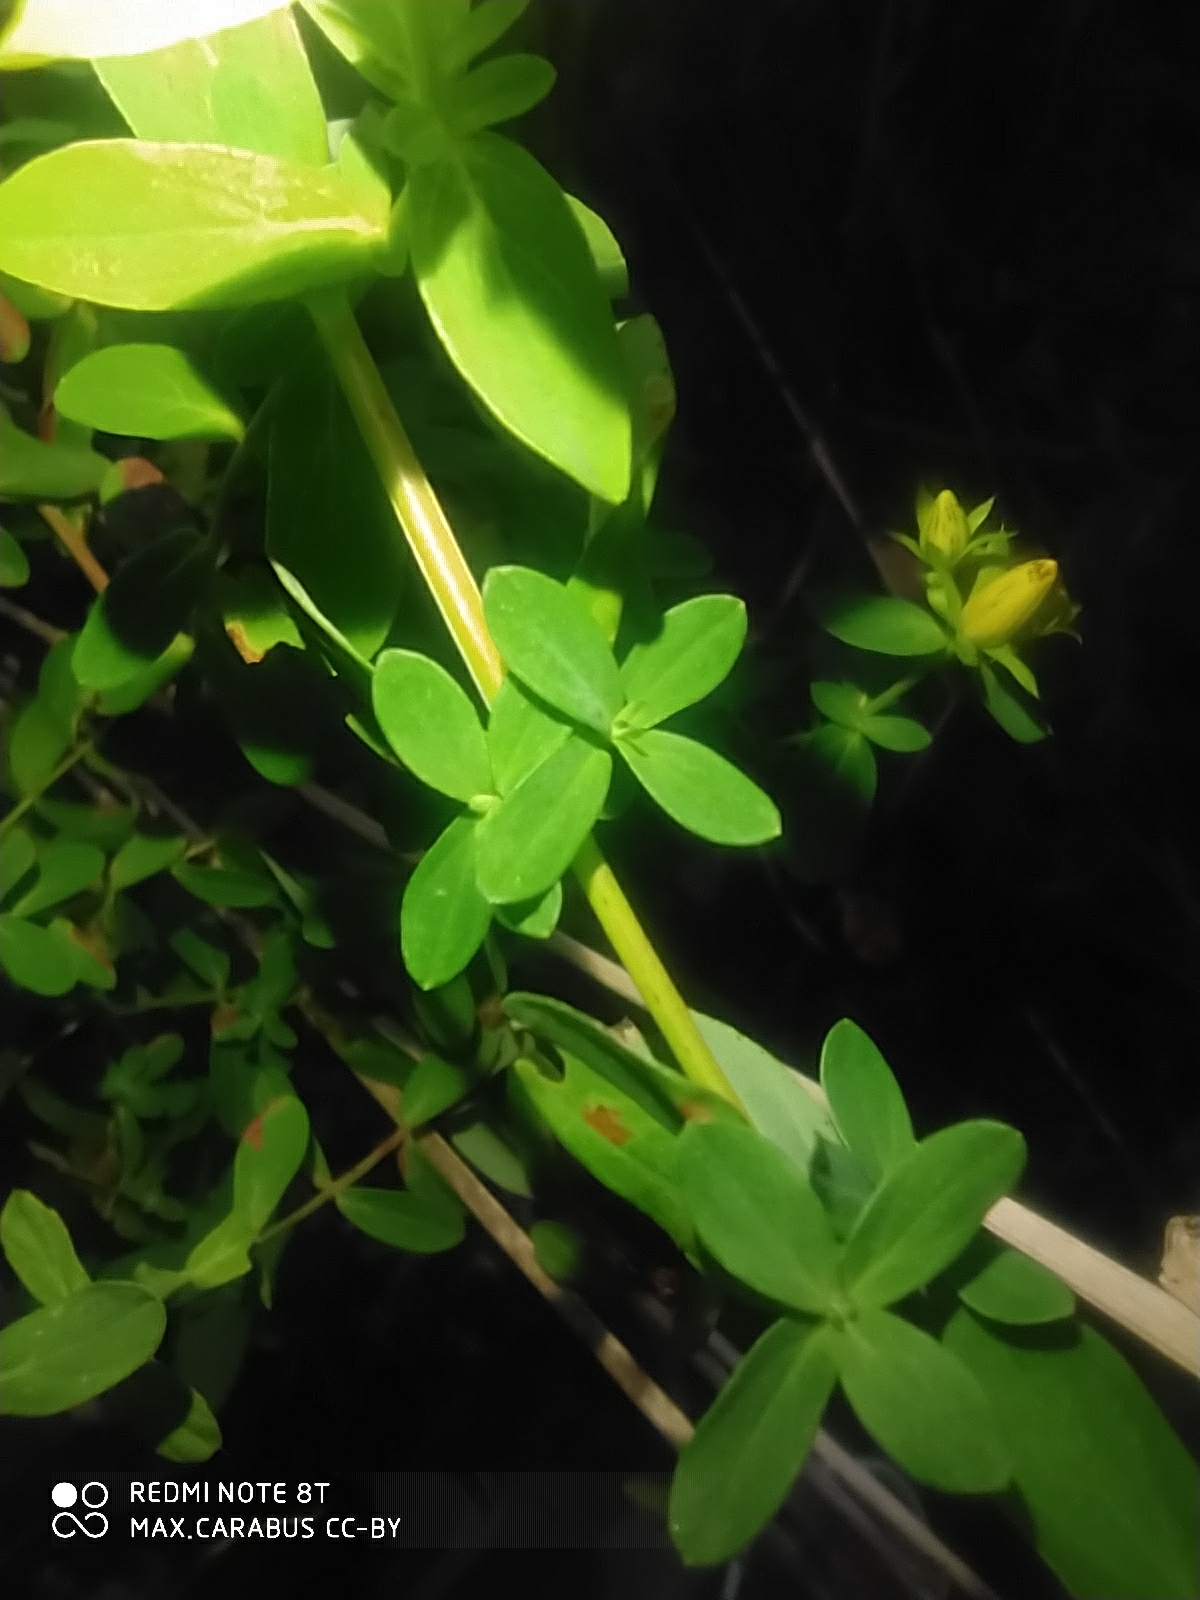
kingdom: Plantae
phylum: Tracheophyta
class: Magnoliopsida
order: Malpighiales
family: Hypericaceae
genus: Hypericum
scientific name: Hypericum perforatum
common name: Common st. johnswort
